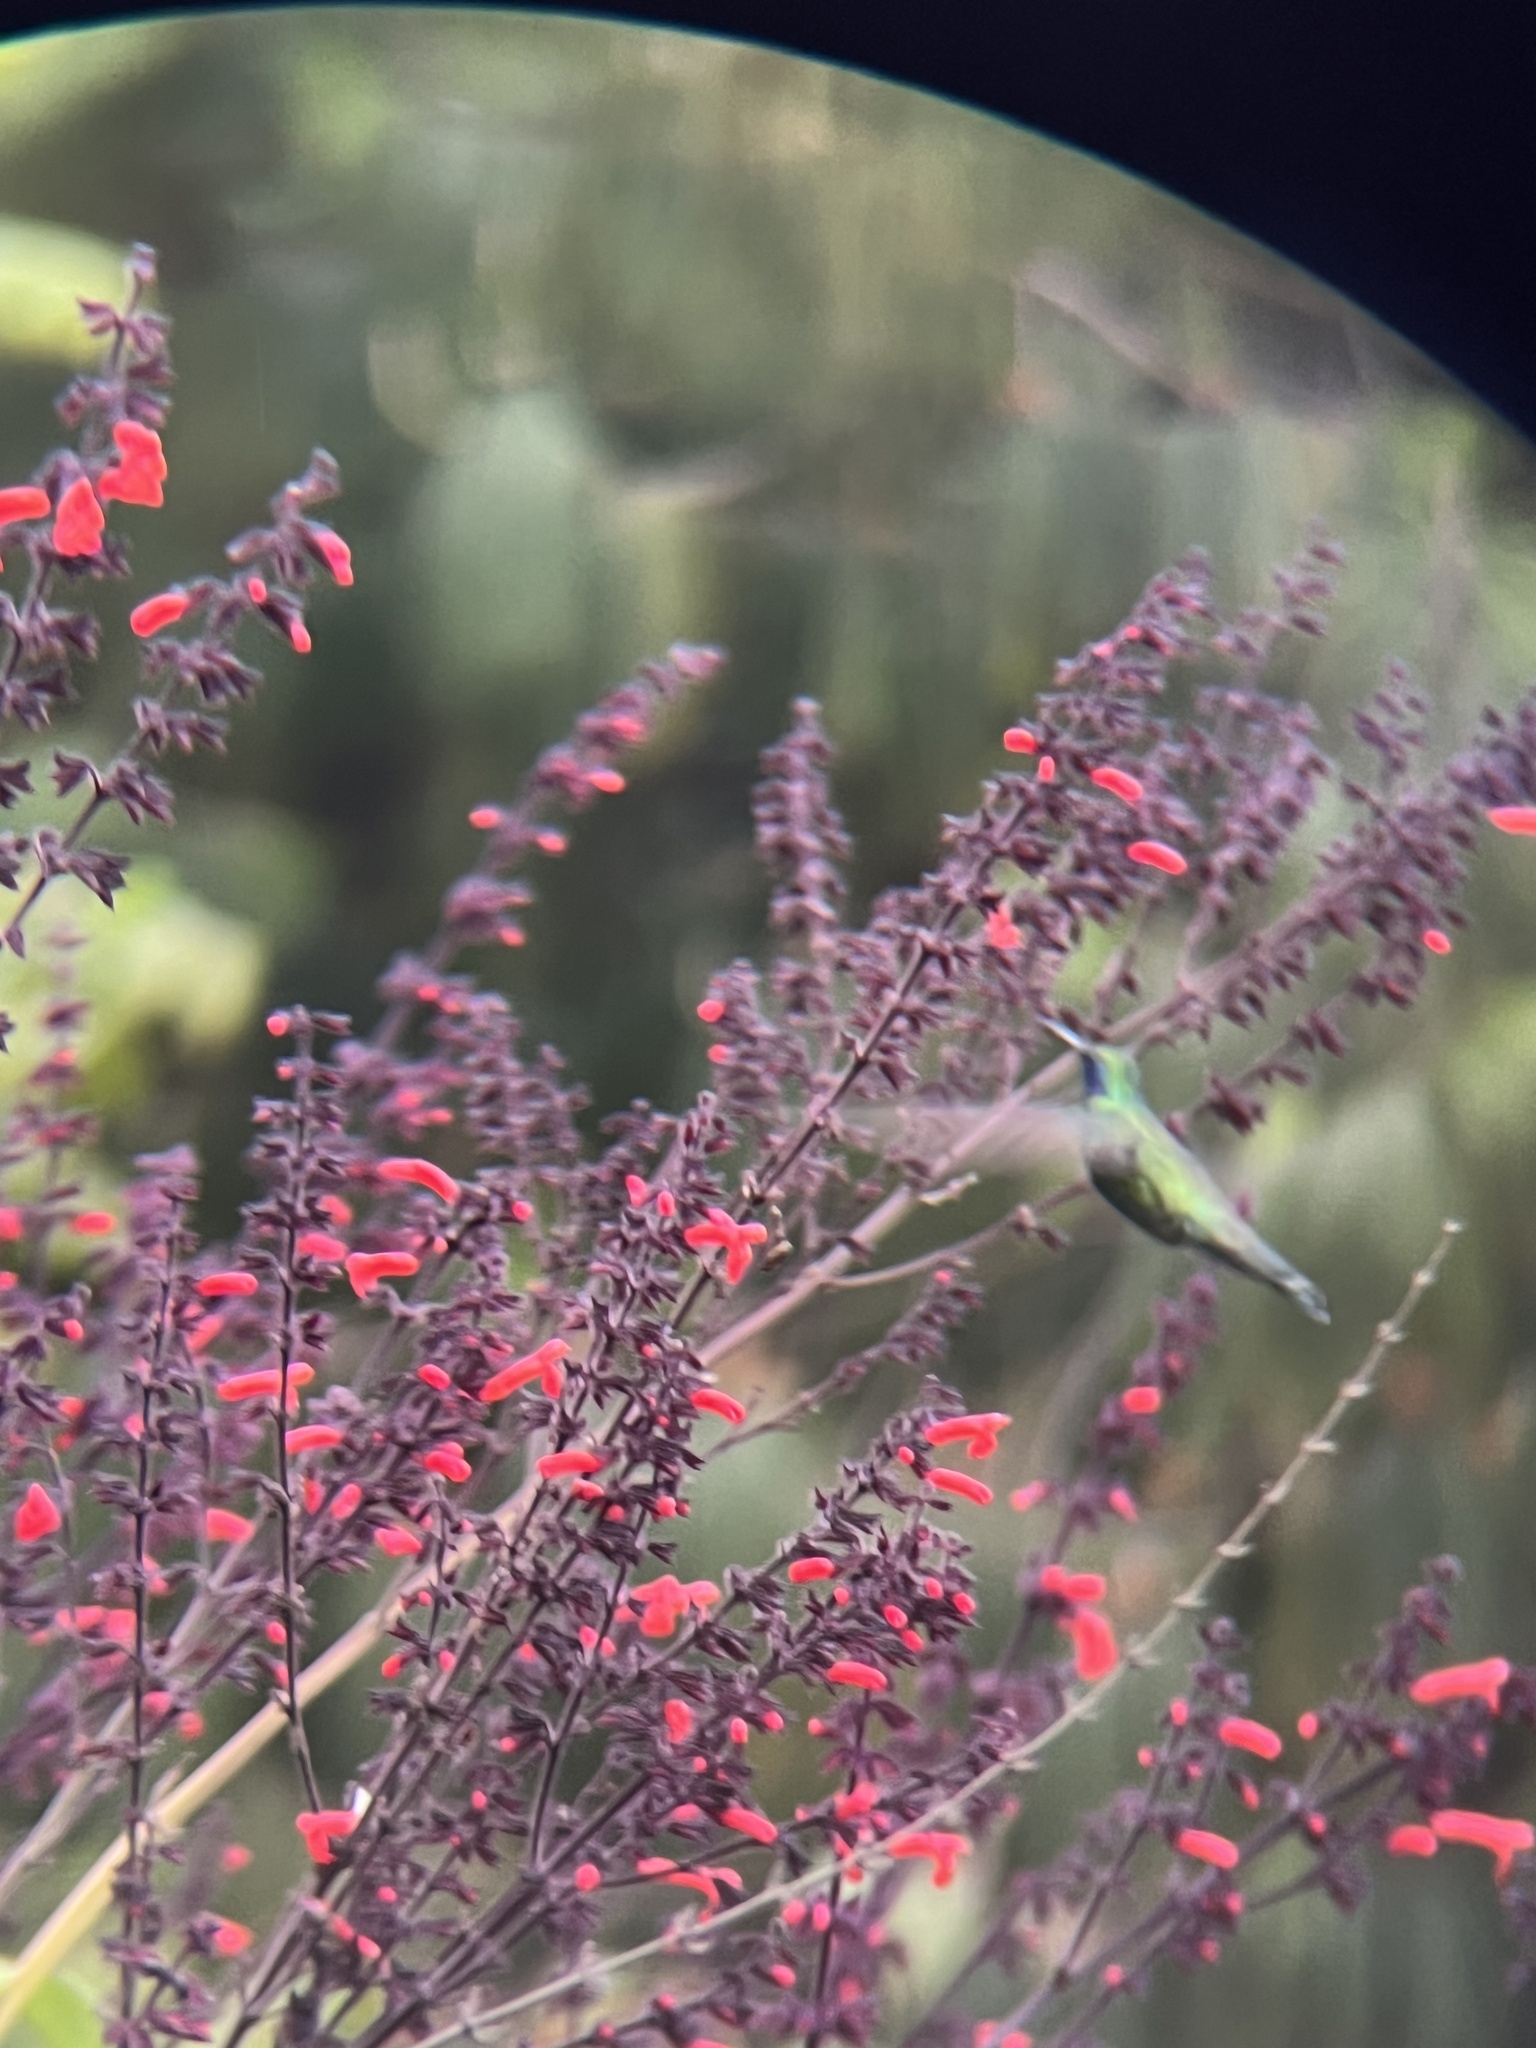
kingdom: Animalia
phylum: Chordata
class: Aves
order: Apodiformes
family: Trochilidae
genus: Colibri
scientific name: Colibri coruscans
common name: Sparkling violetear
